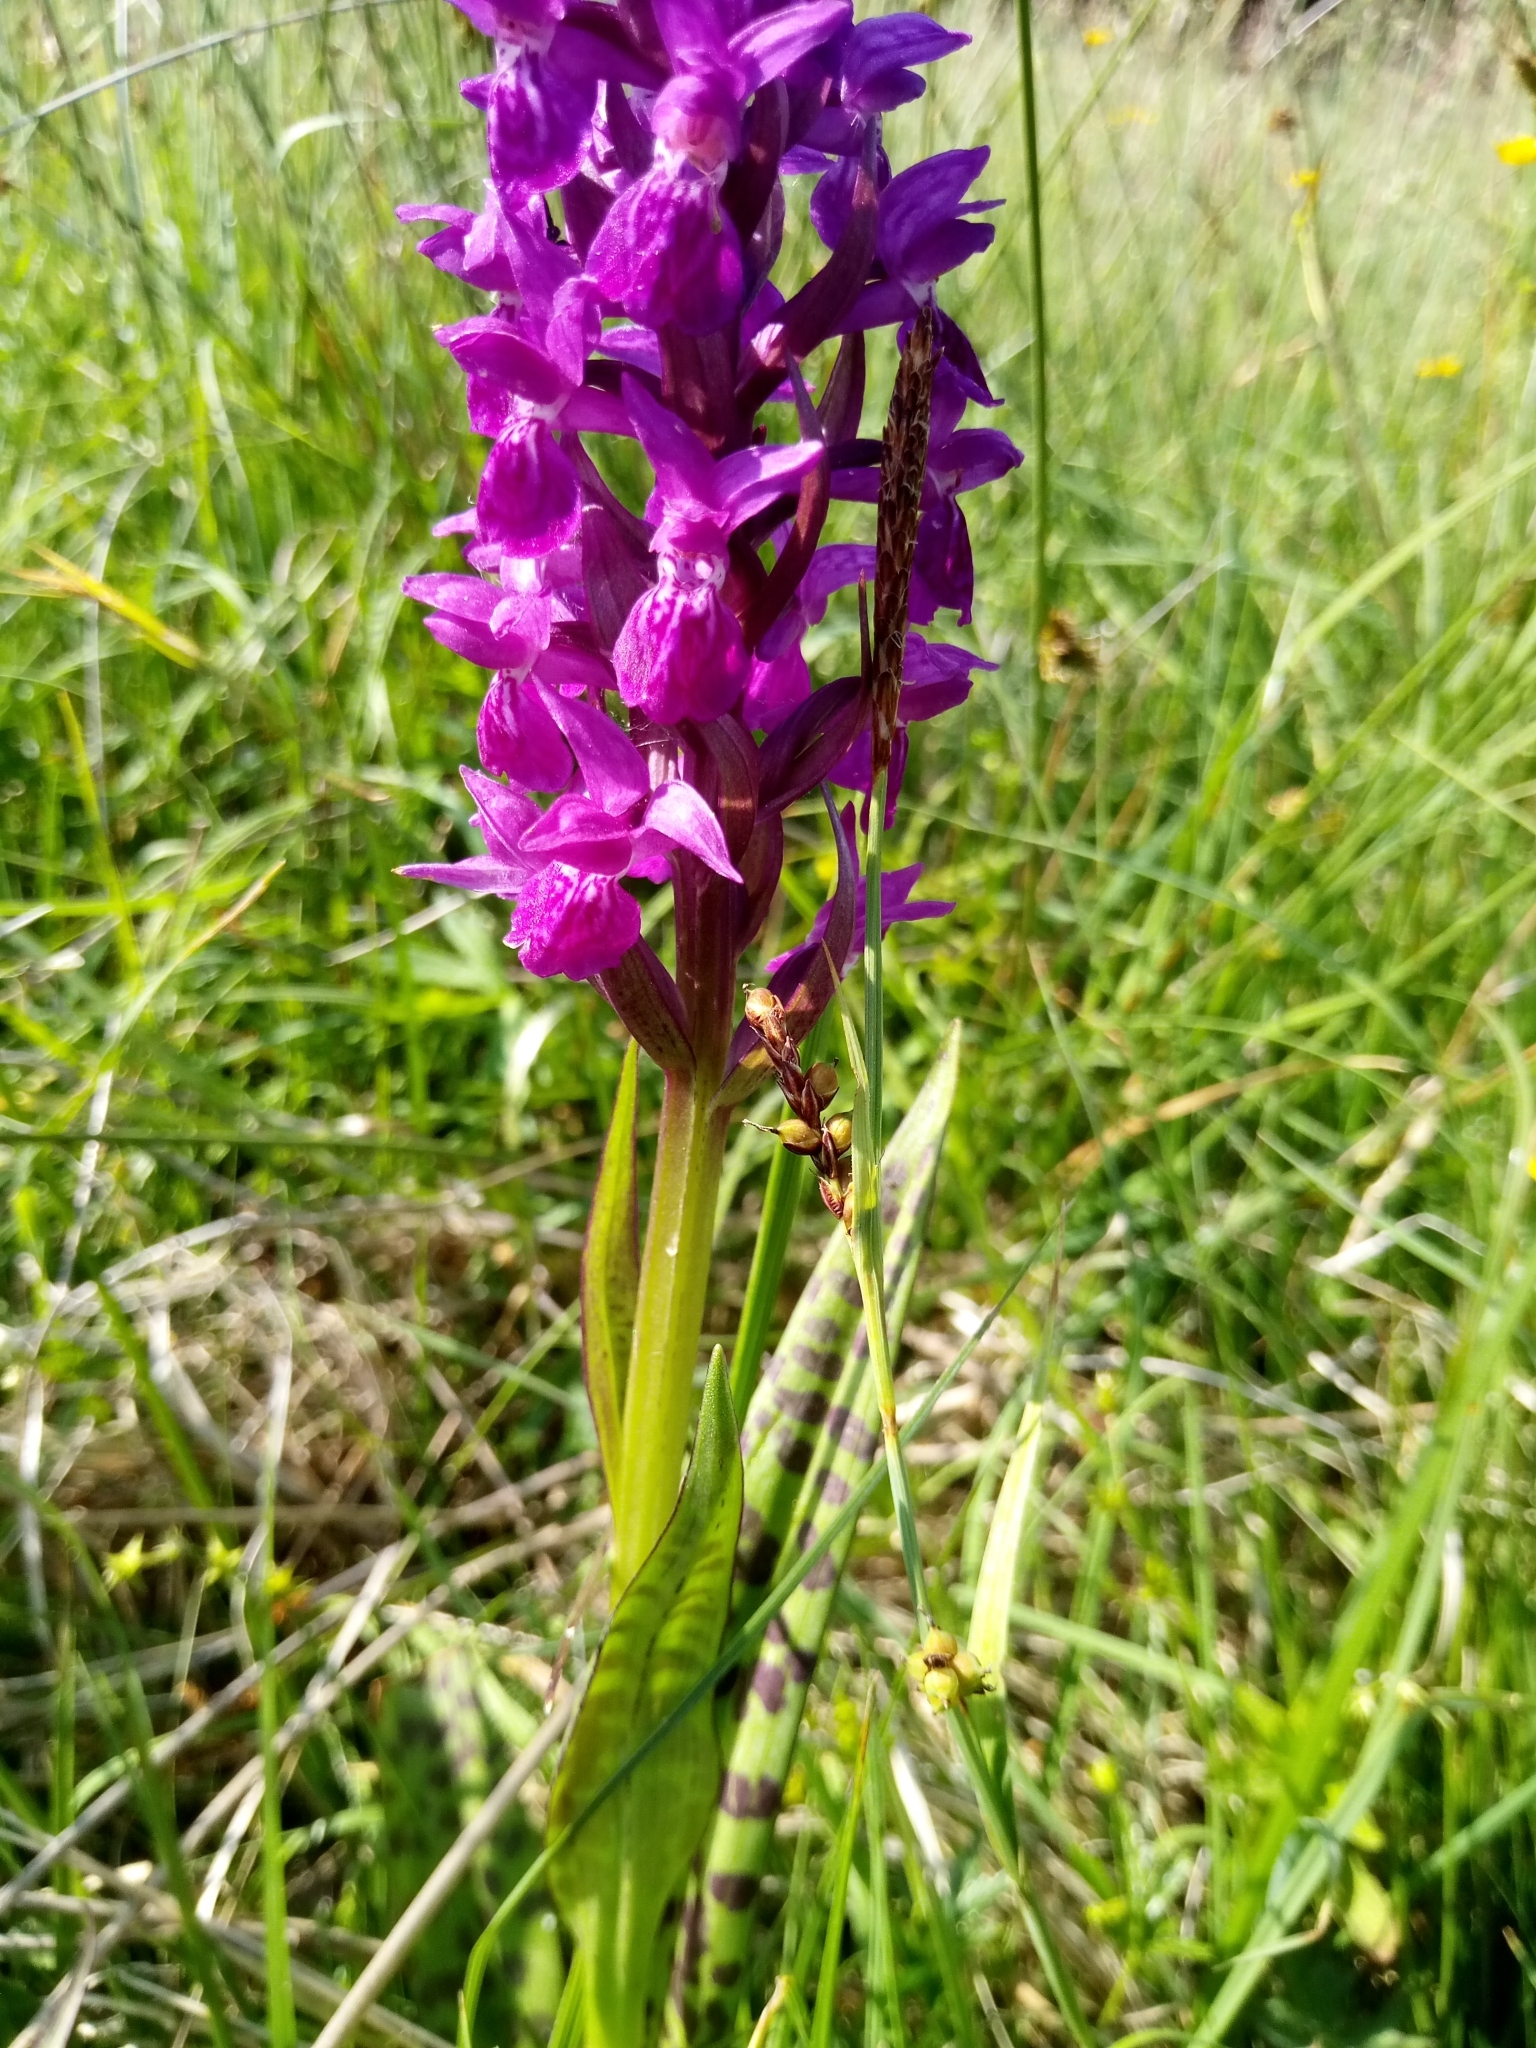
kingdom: Plantae
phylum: Tracheophyta
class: Liliopsida
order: Asparagales
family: Orchidaceae
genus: Dactylorhiza
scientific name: Dactylorhiza majalis
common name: Marsh orchid
